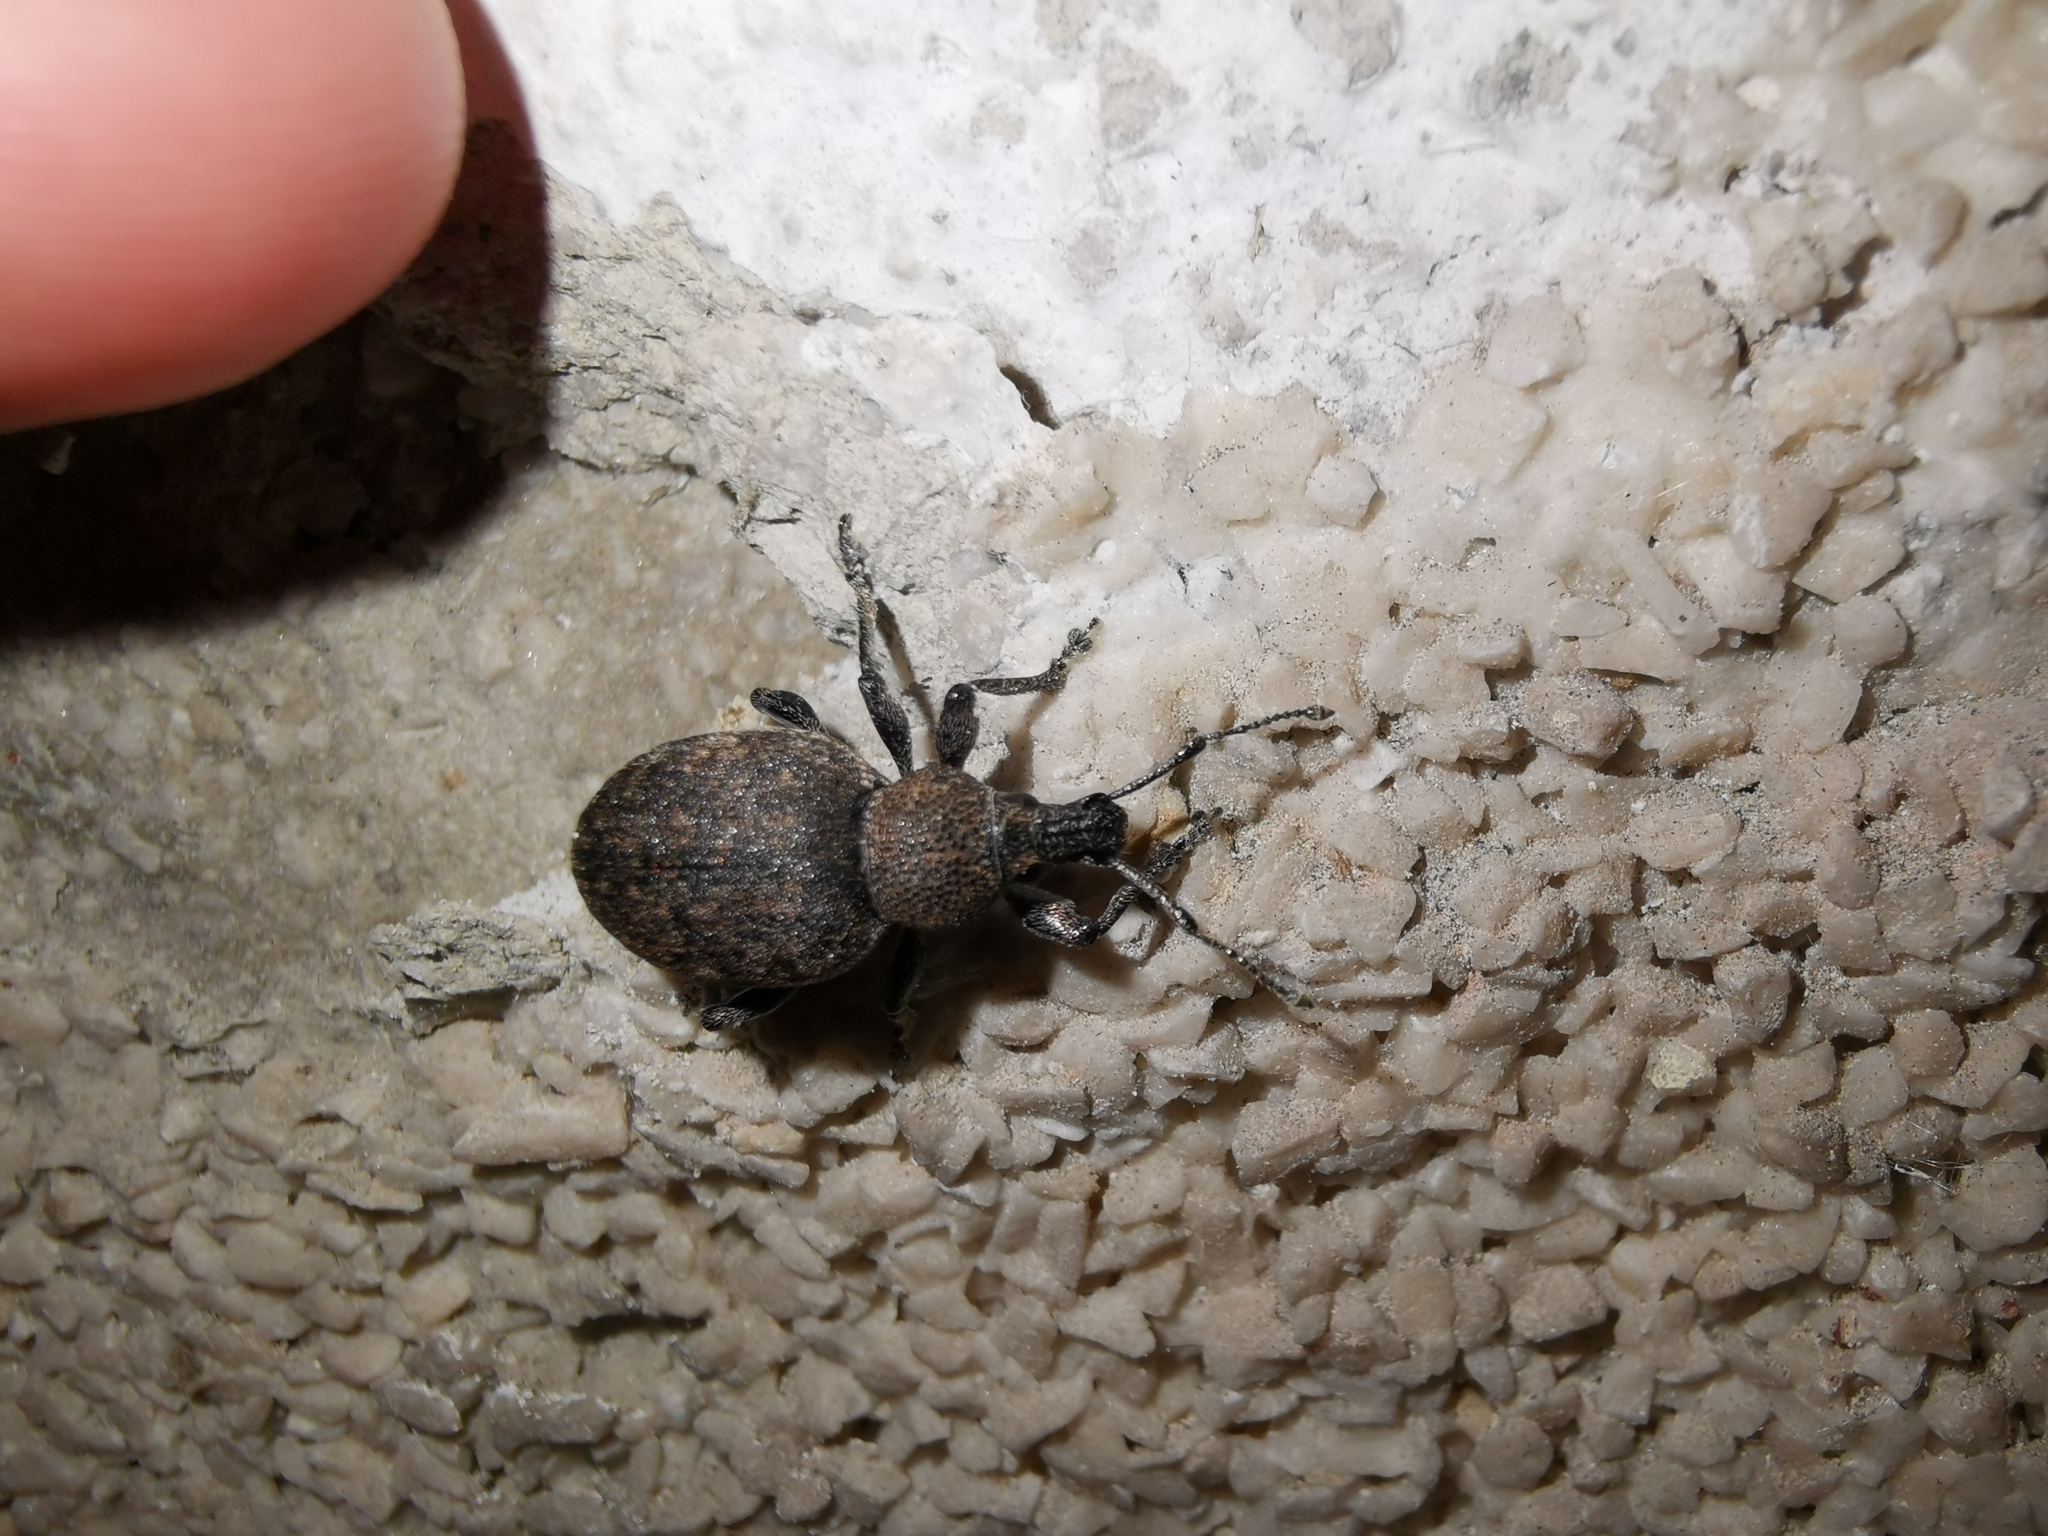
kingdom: Animalia
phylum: Arthropoda
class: Insecta
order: Coleoptera
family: Curculionidae
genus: Otiorhynchus
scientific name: Otiorhynchus ligustici
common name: Weevil
